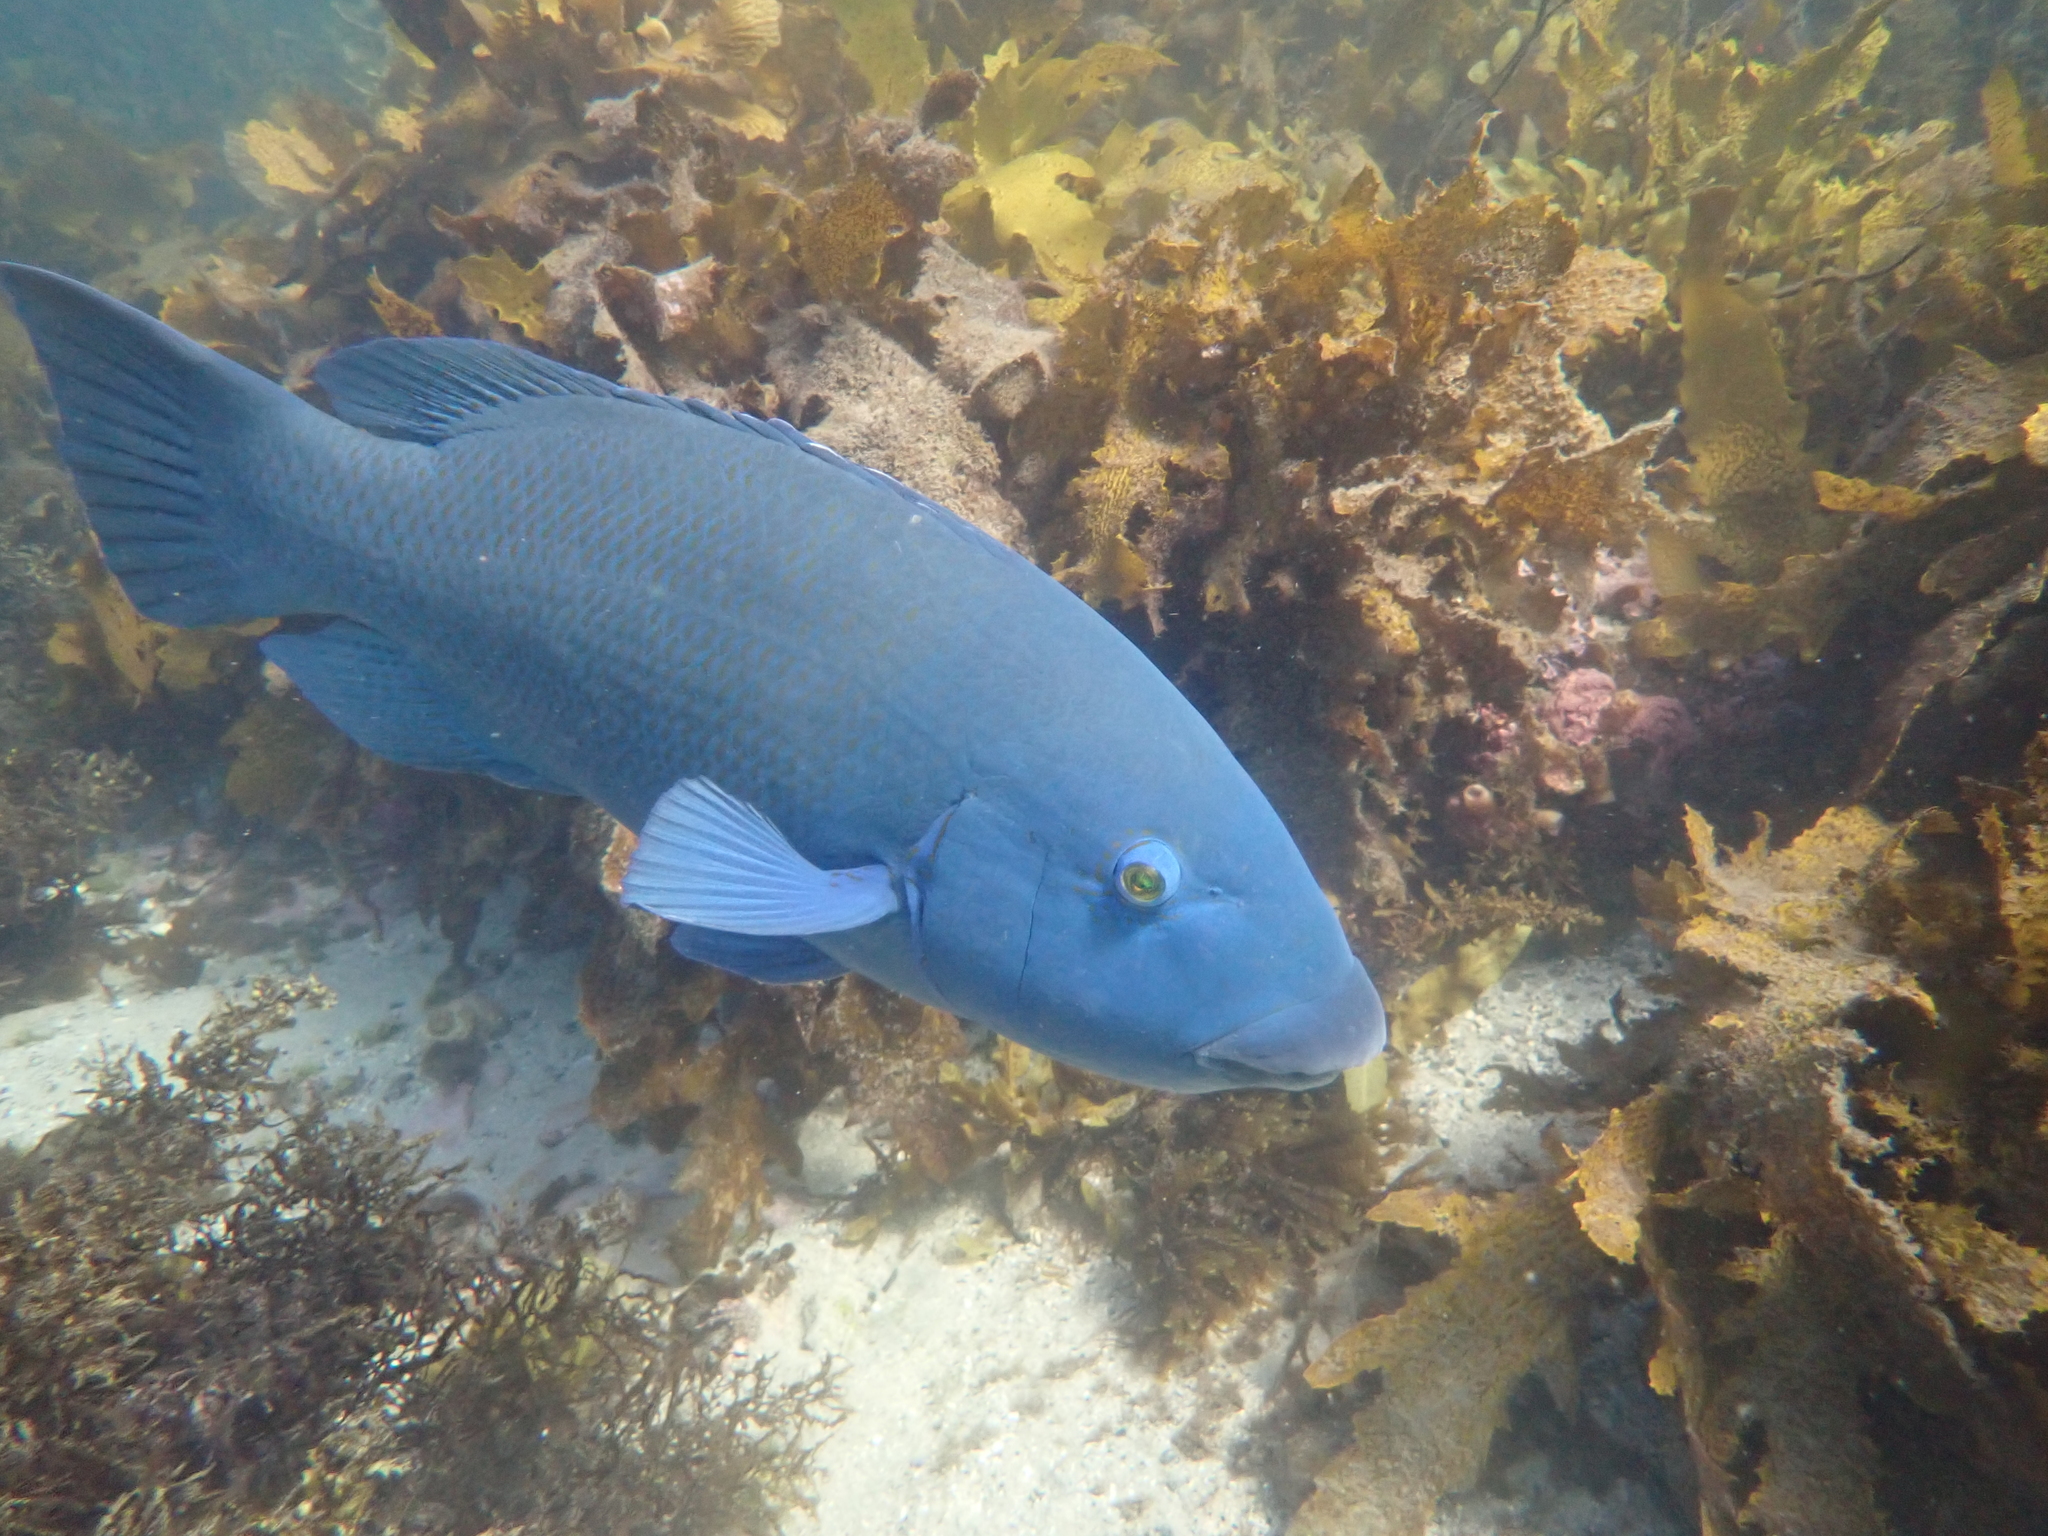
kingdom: Animalia
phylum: Chordata
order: Perciformes
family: Labridae
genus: Achoerodus
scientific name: Achoerodus viridis
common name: Brown groper
